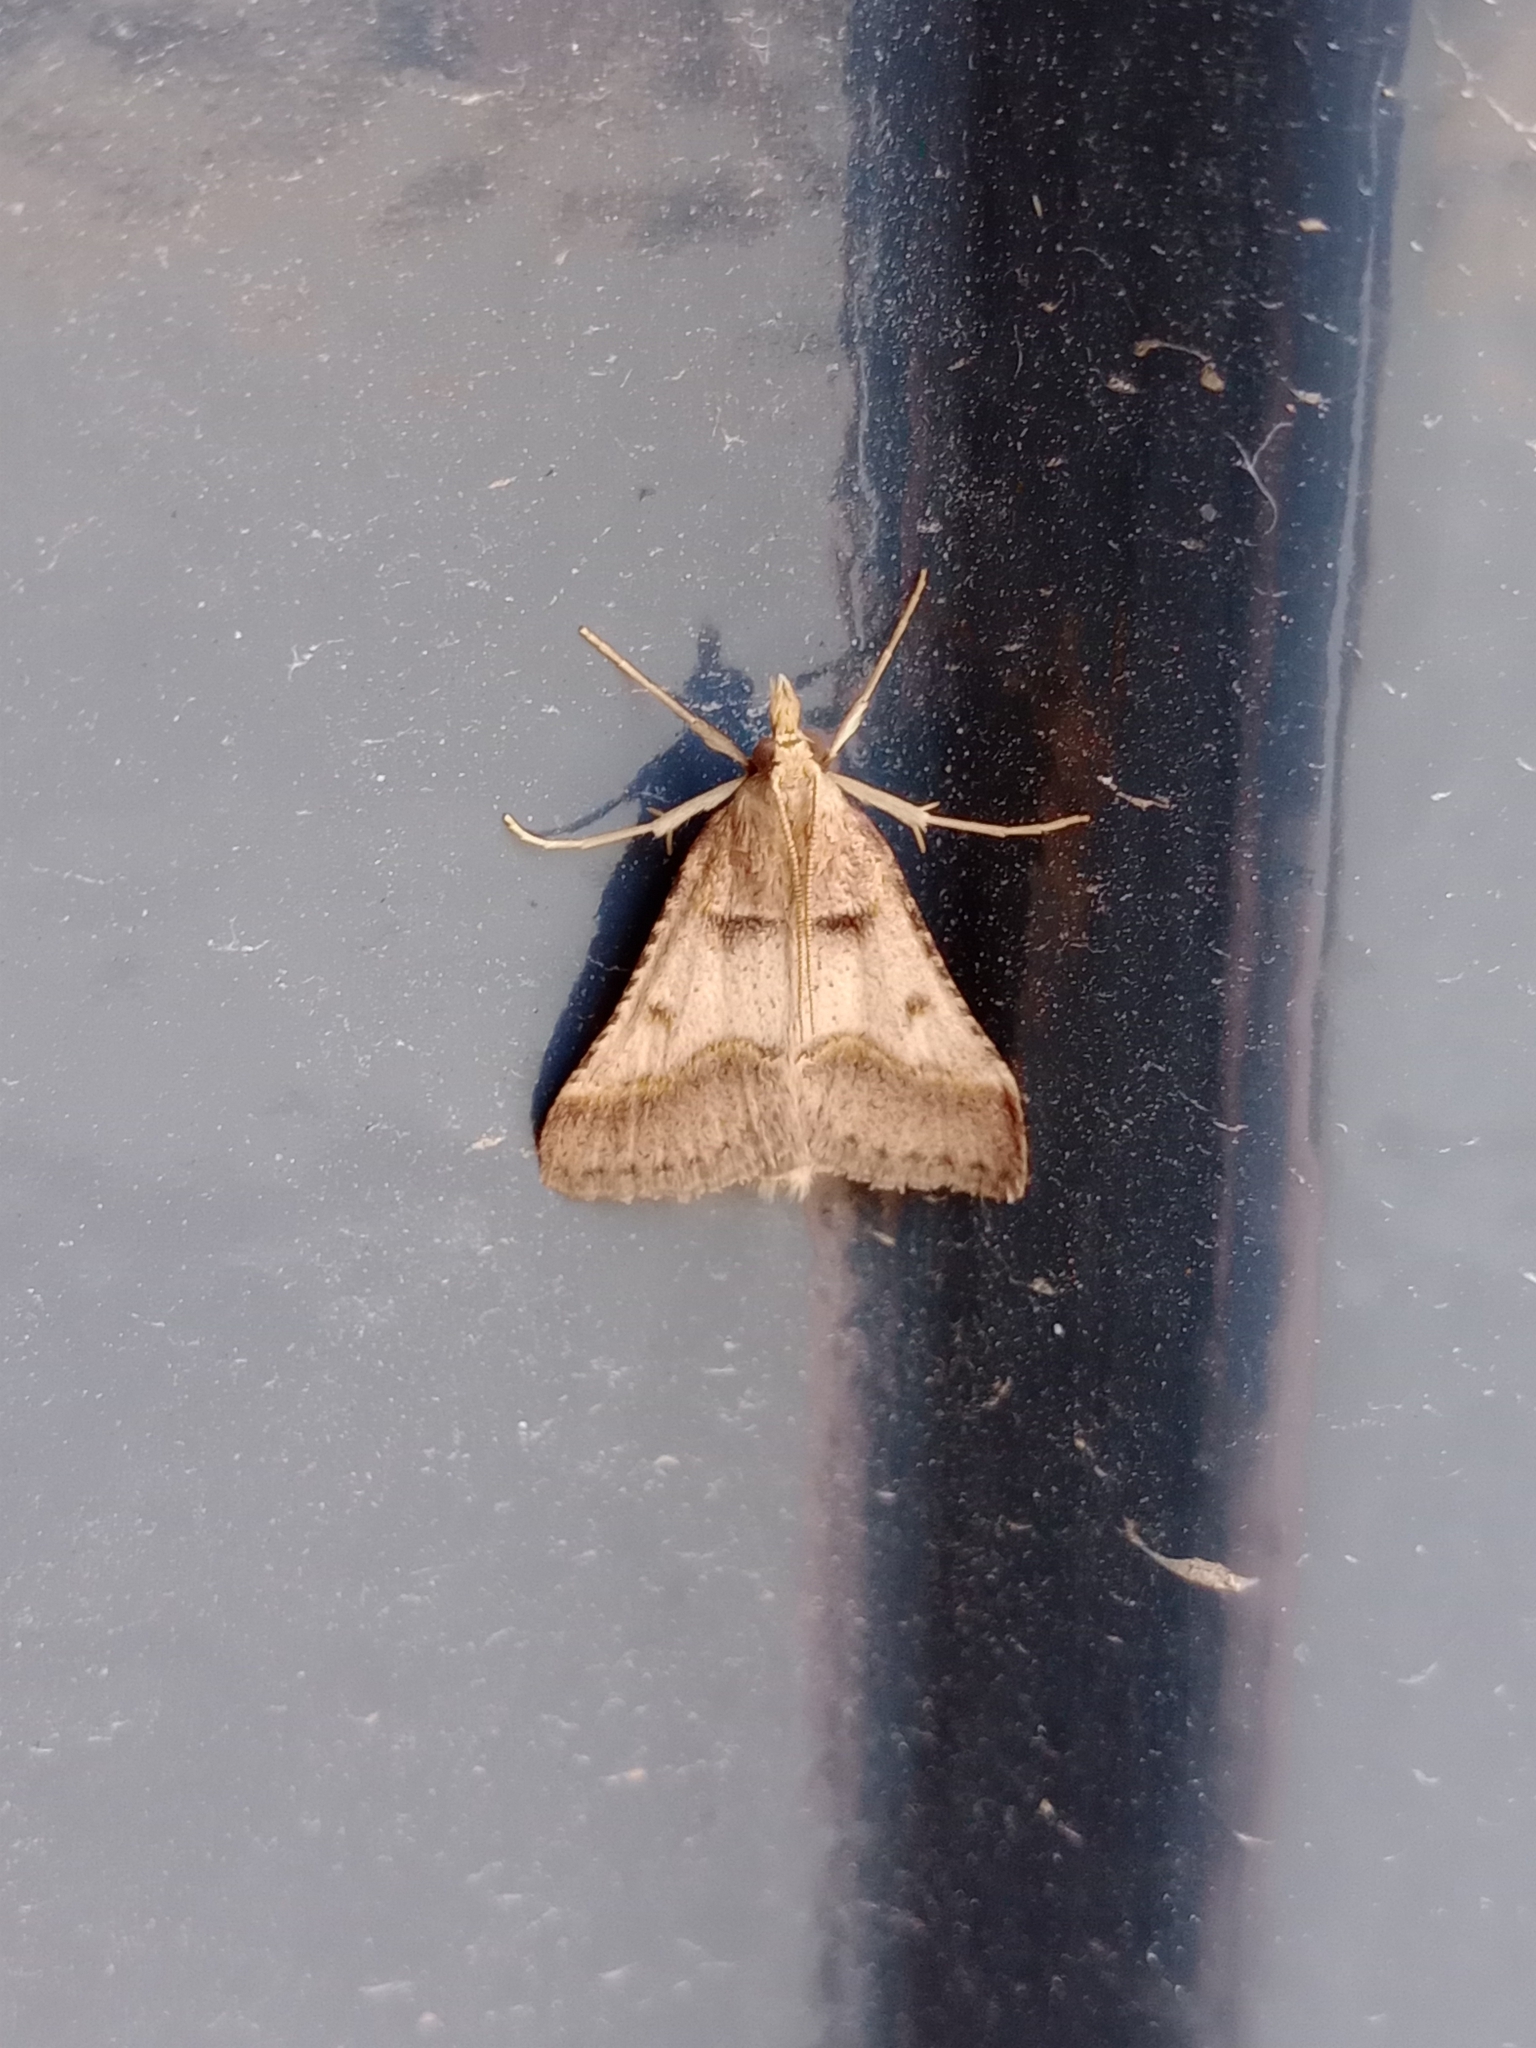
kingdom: Animalia
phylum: Arthropoda
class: Insecta
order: Lepidoptera
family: Pyralidae
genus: Stemmatophora
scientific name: Stemmatophora brunnealis
